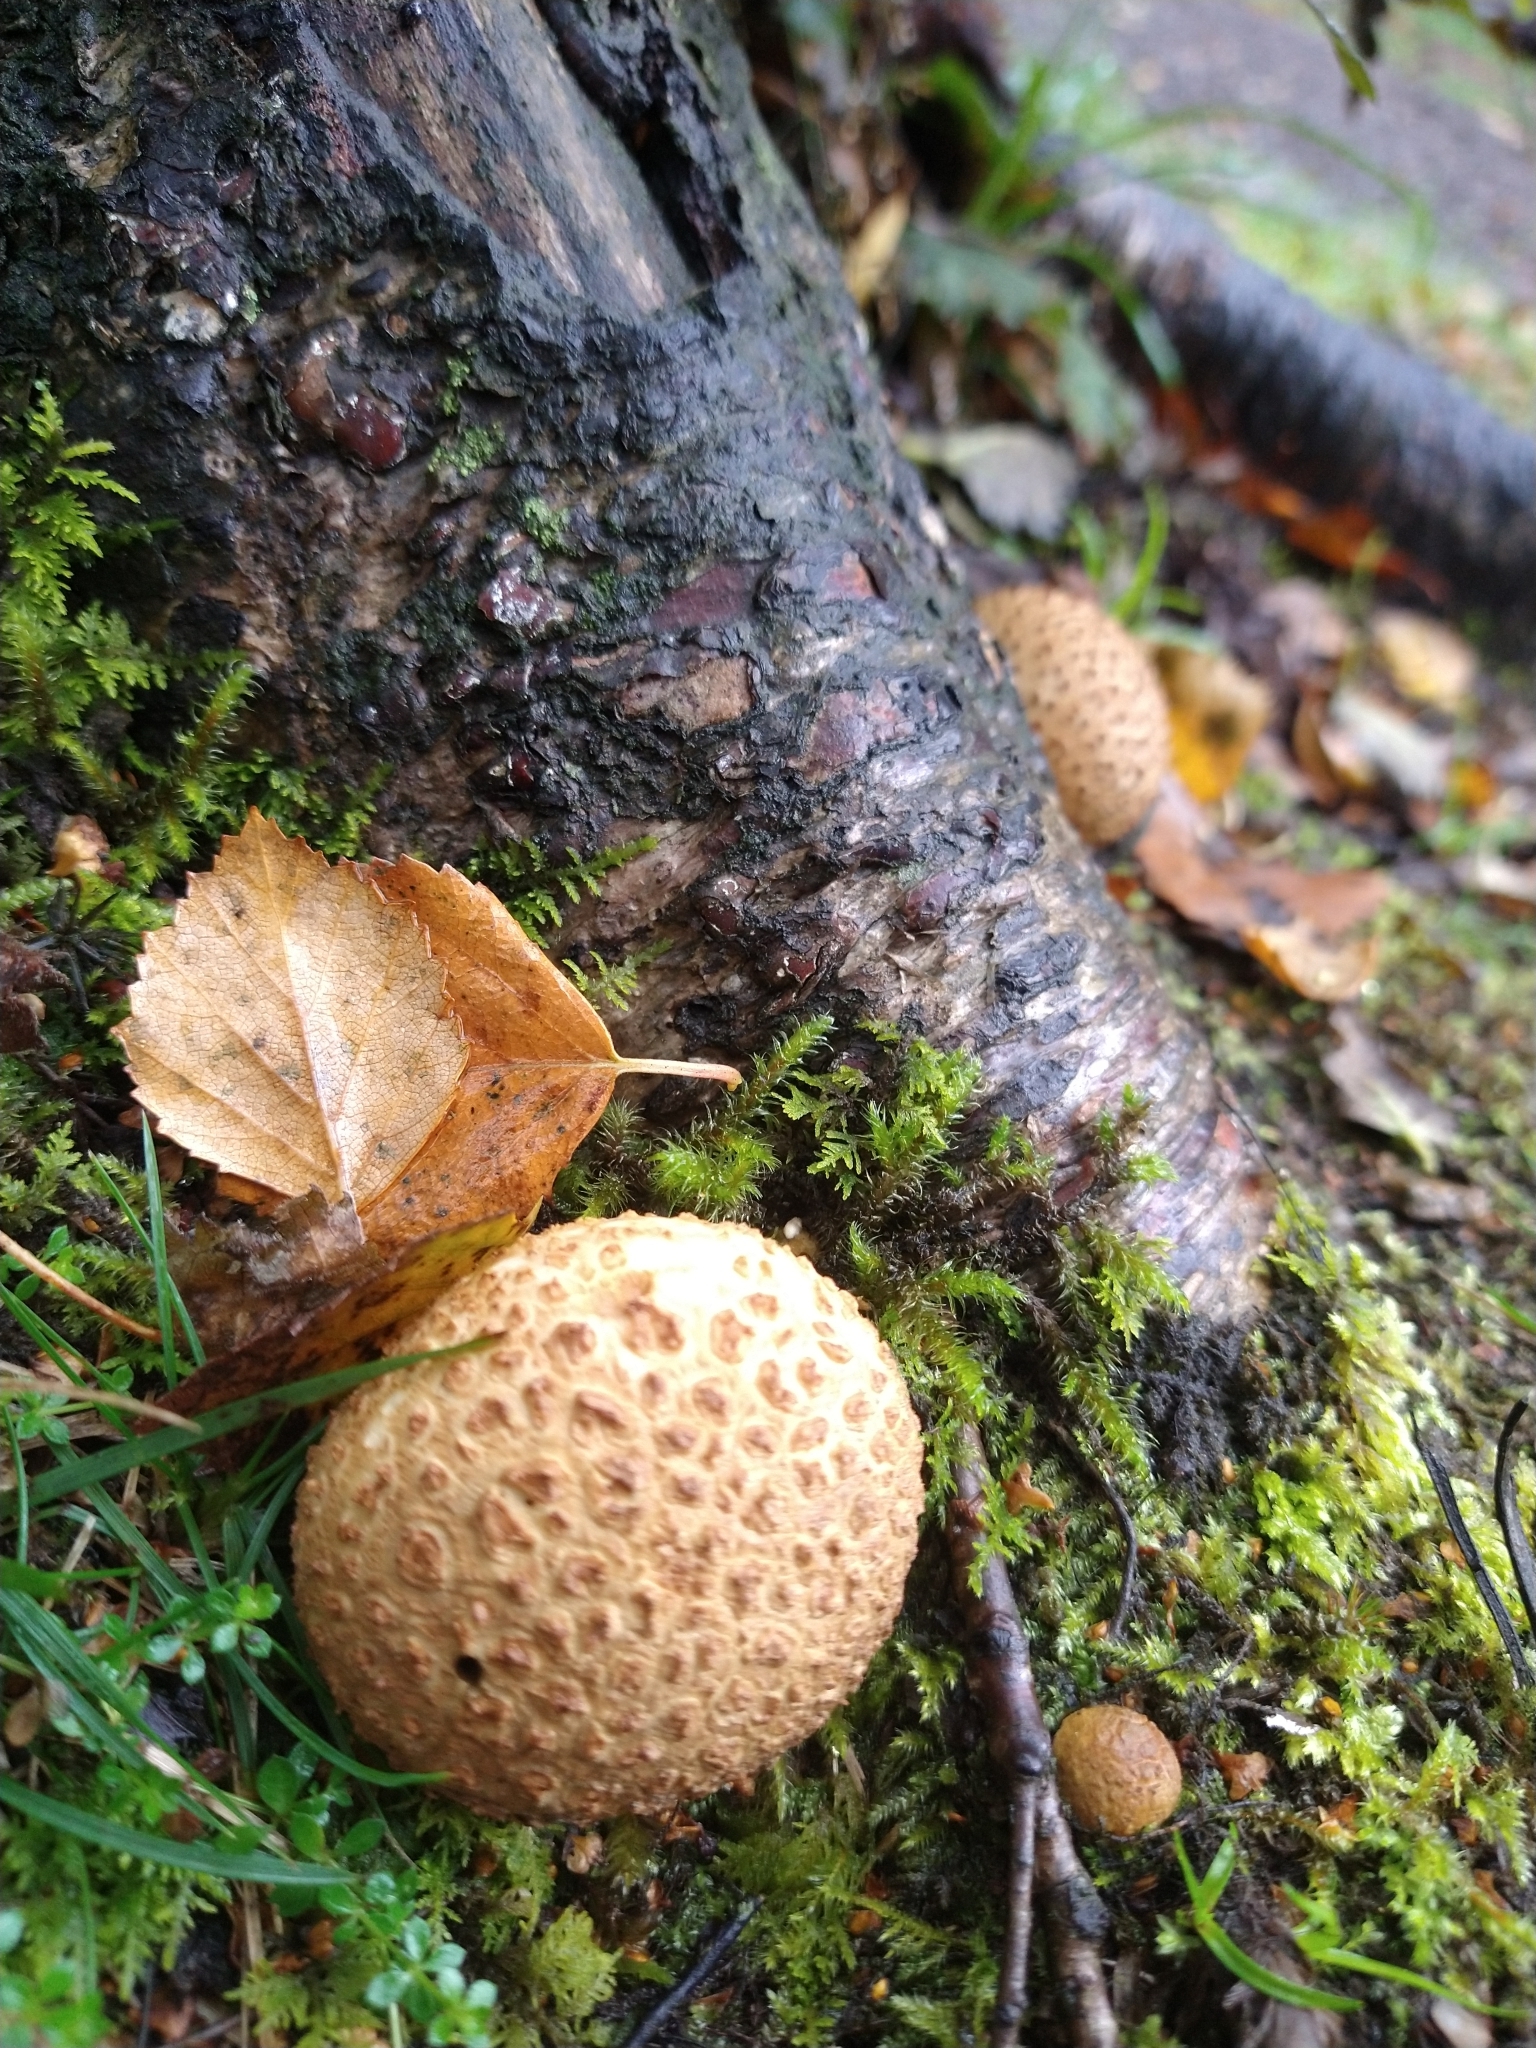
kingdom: Fungi
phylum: Basidiomycota
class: Agaricomycetes
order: Boletales
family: Sclerodermataceae
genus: Scleroderma
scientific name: Scleroderma citrinum
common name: Common earthball
